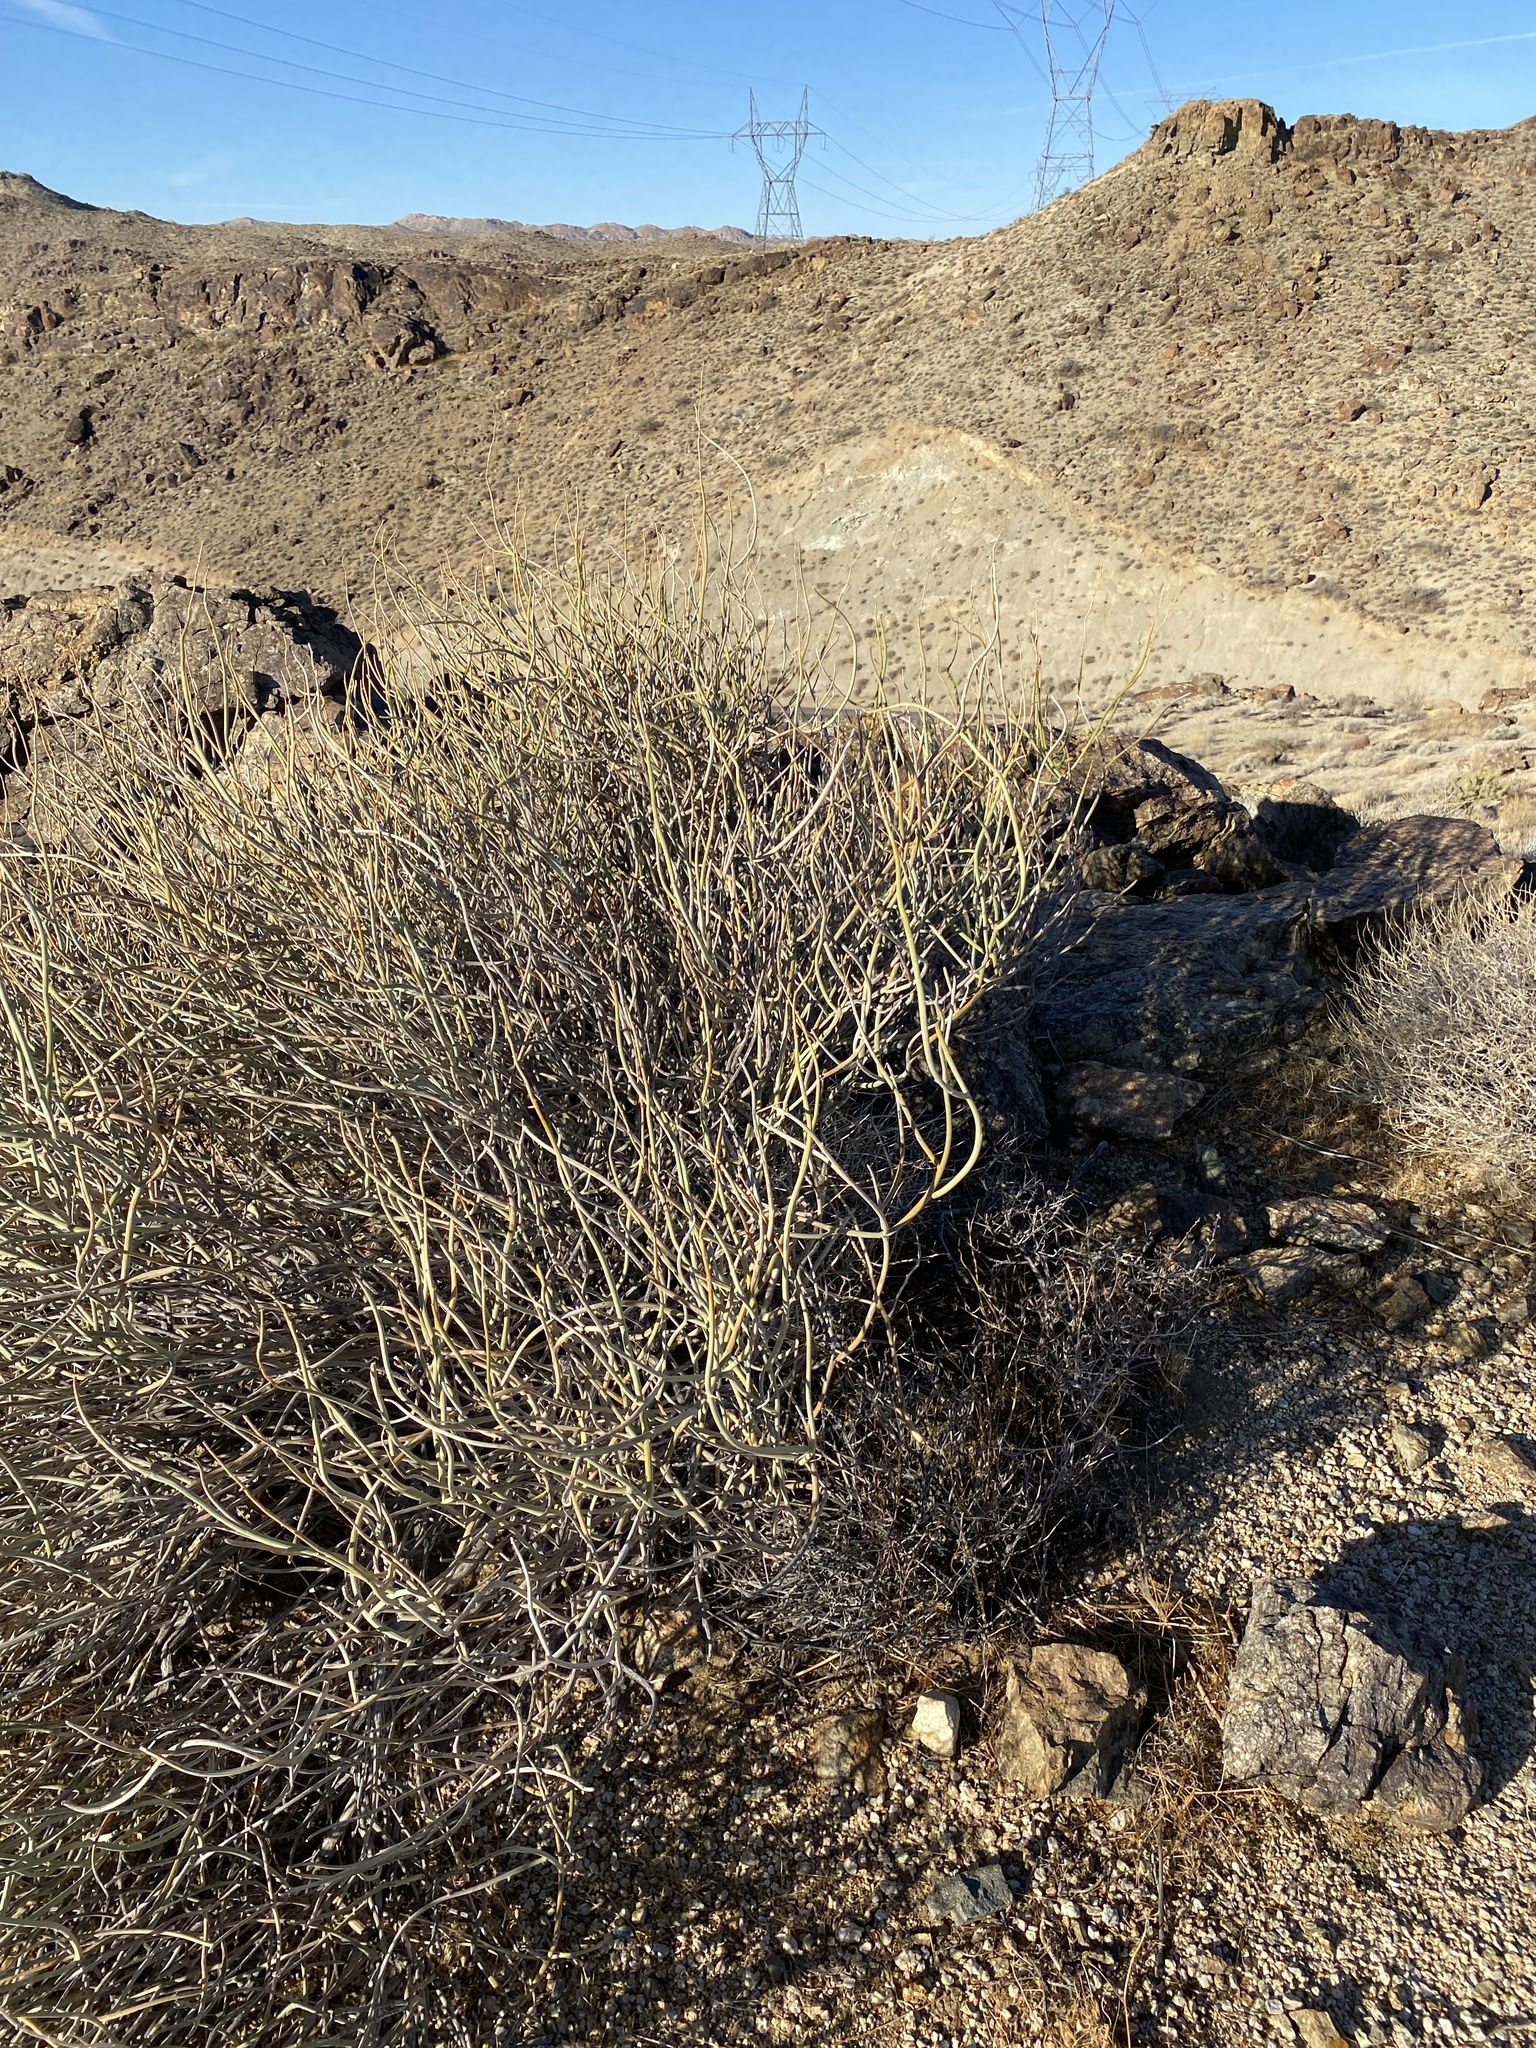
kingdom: Plantae
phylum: Tracheophyta
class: Magnoliopsida
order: Fabales
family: Fabaceae
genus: Senna
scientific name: Senna armata
